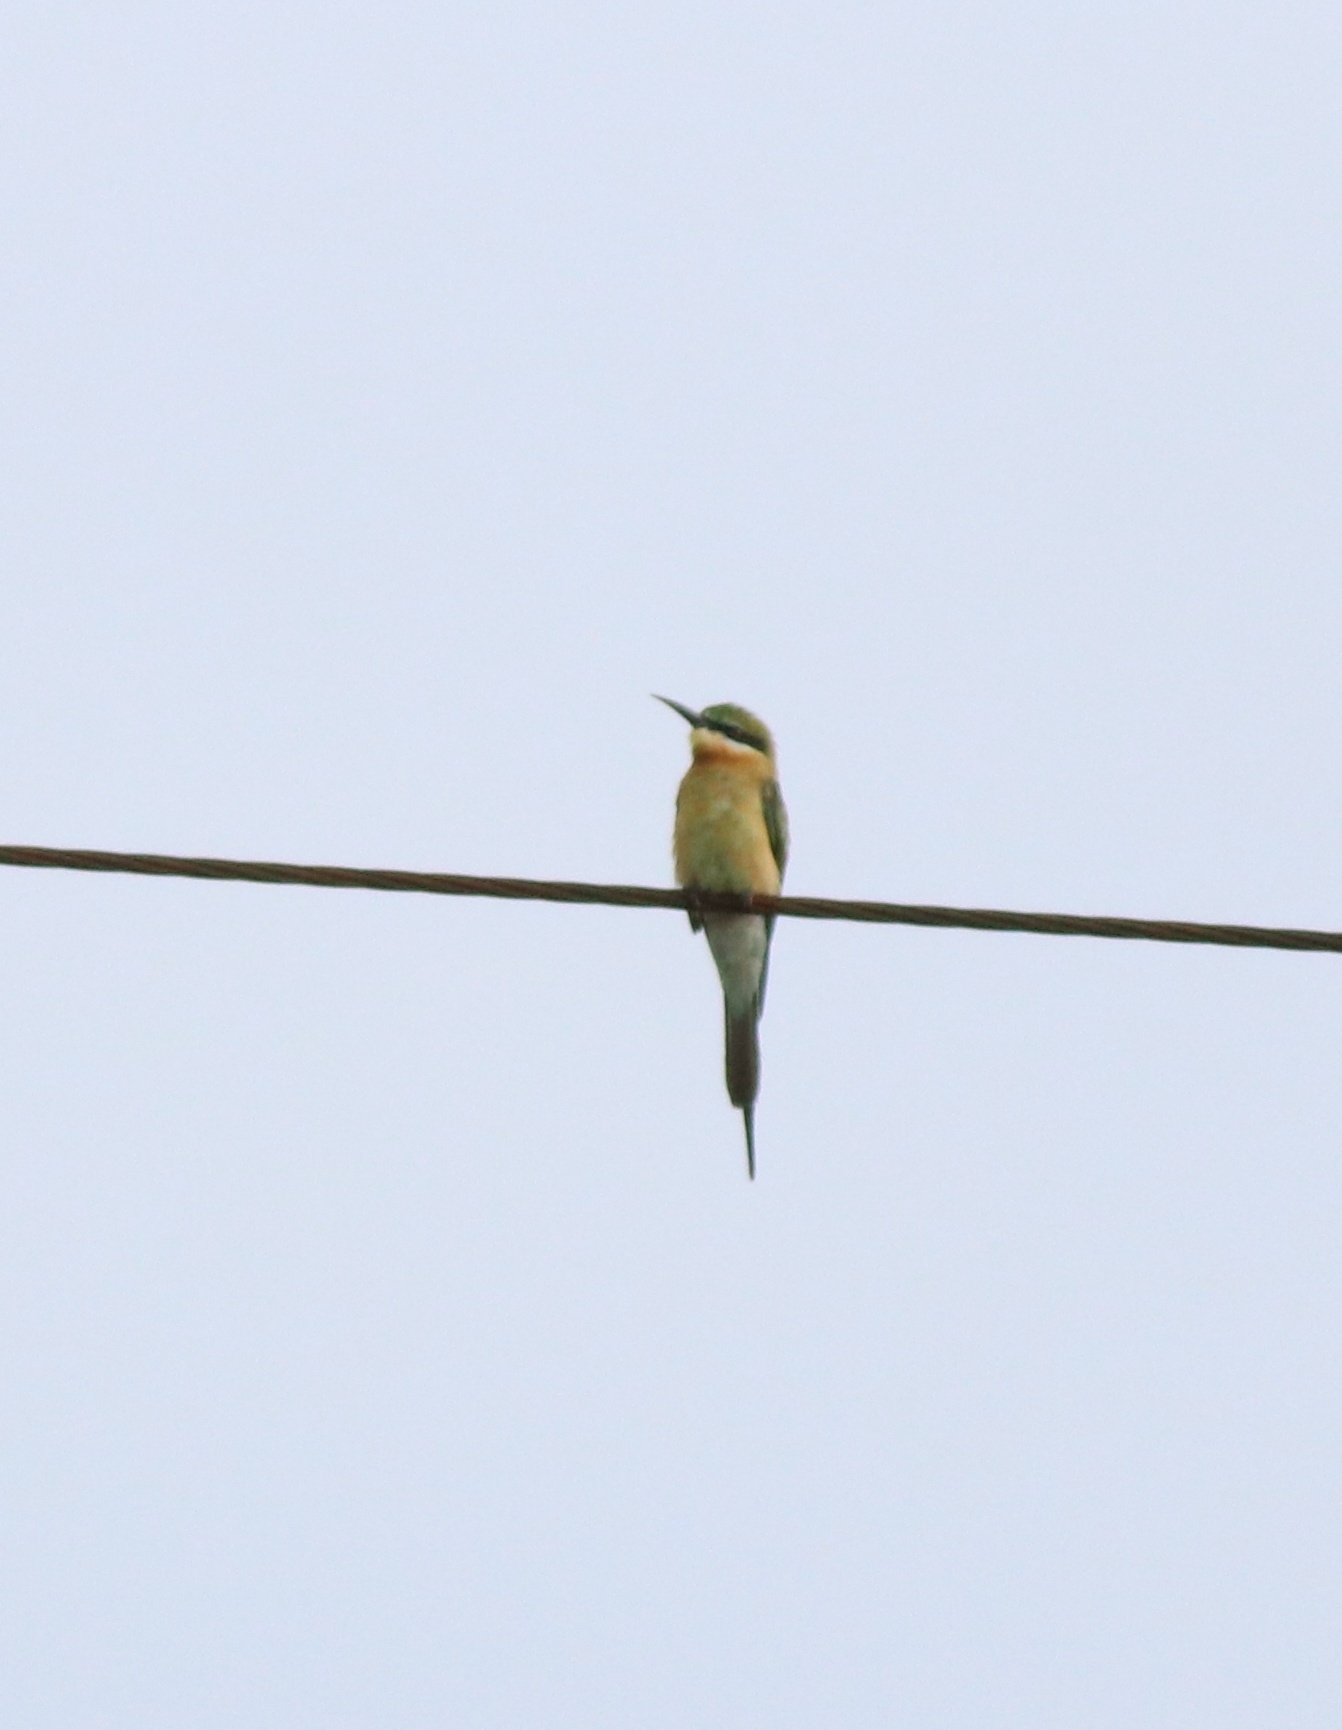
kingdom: Animalia
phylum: Chordata
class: Aves
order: Coraciiformes
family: Meropidae
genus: Merops
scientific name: Merops philippinus
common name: Blue-tailed bee-eater
